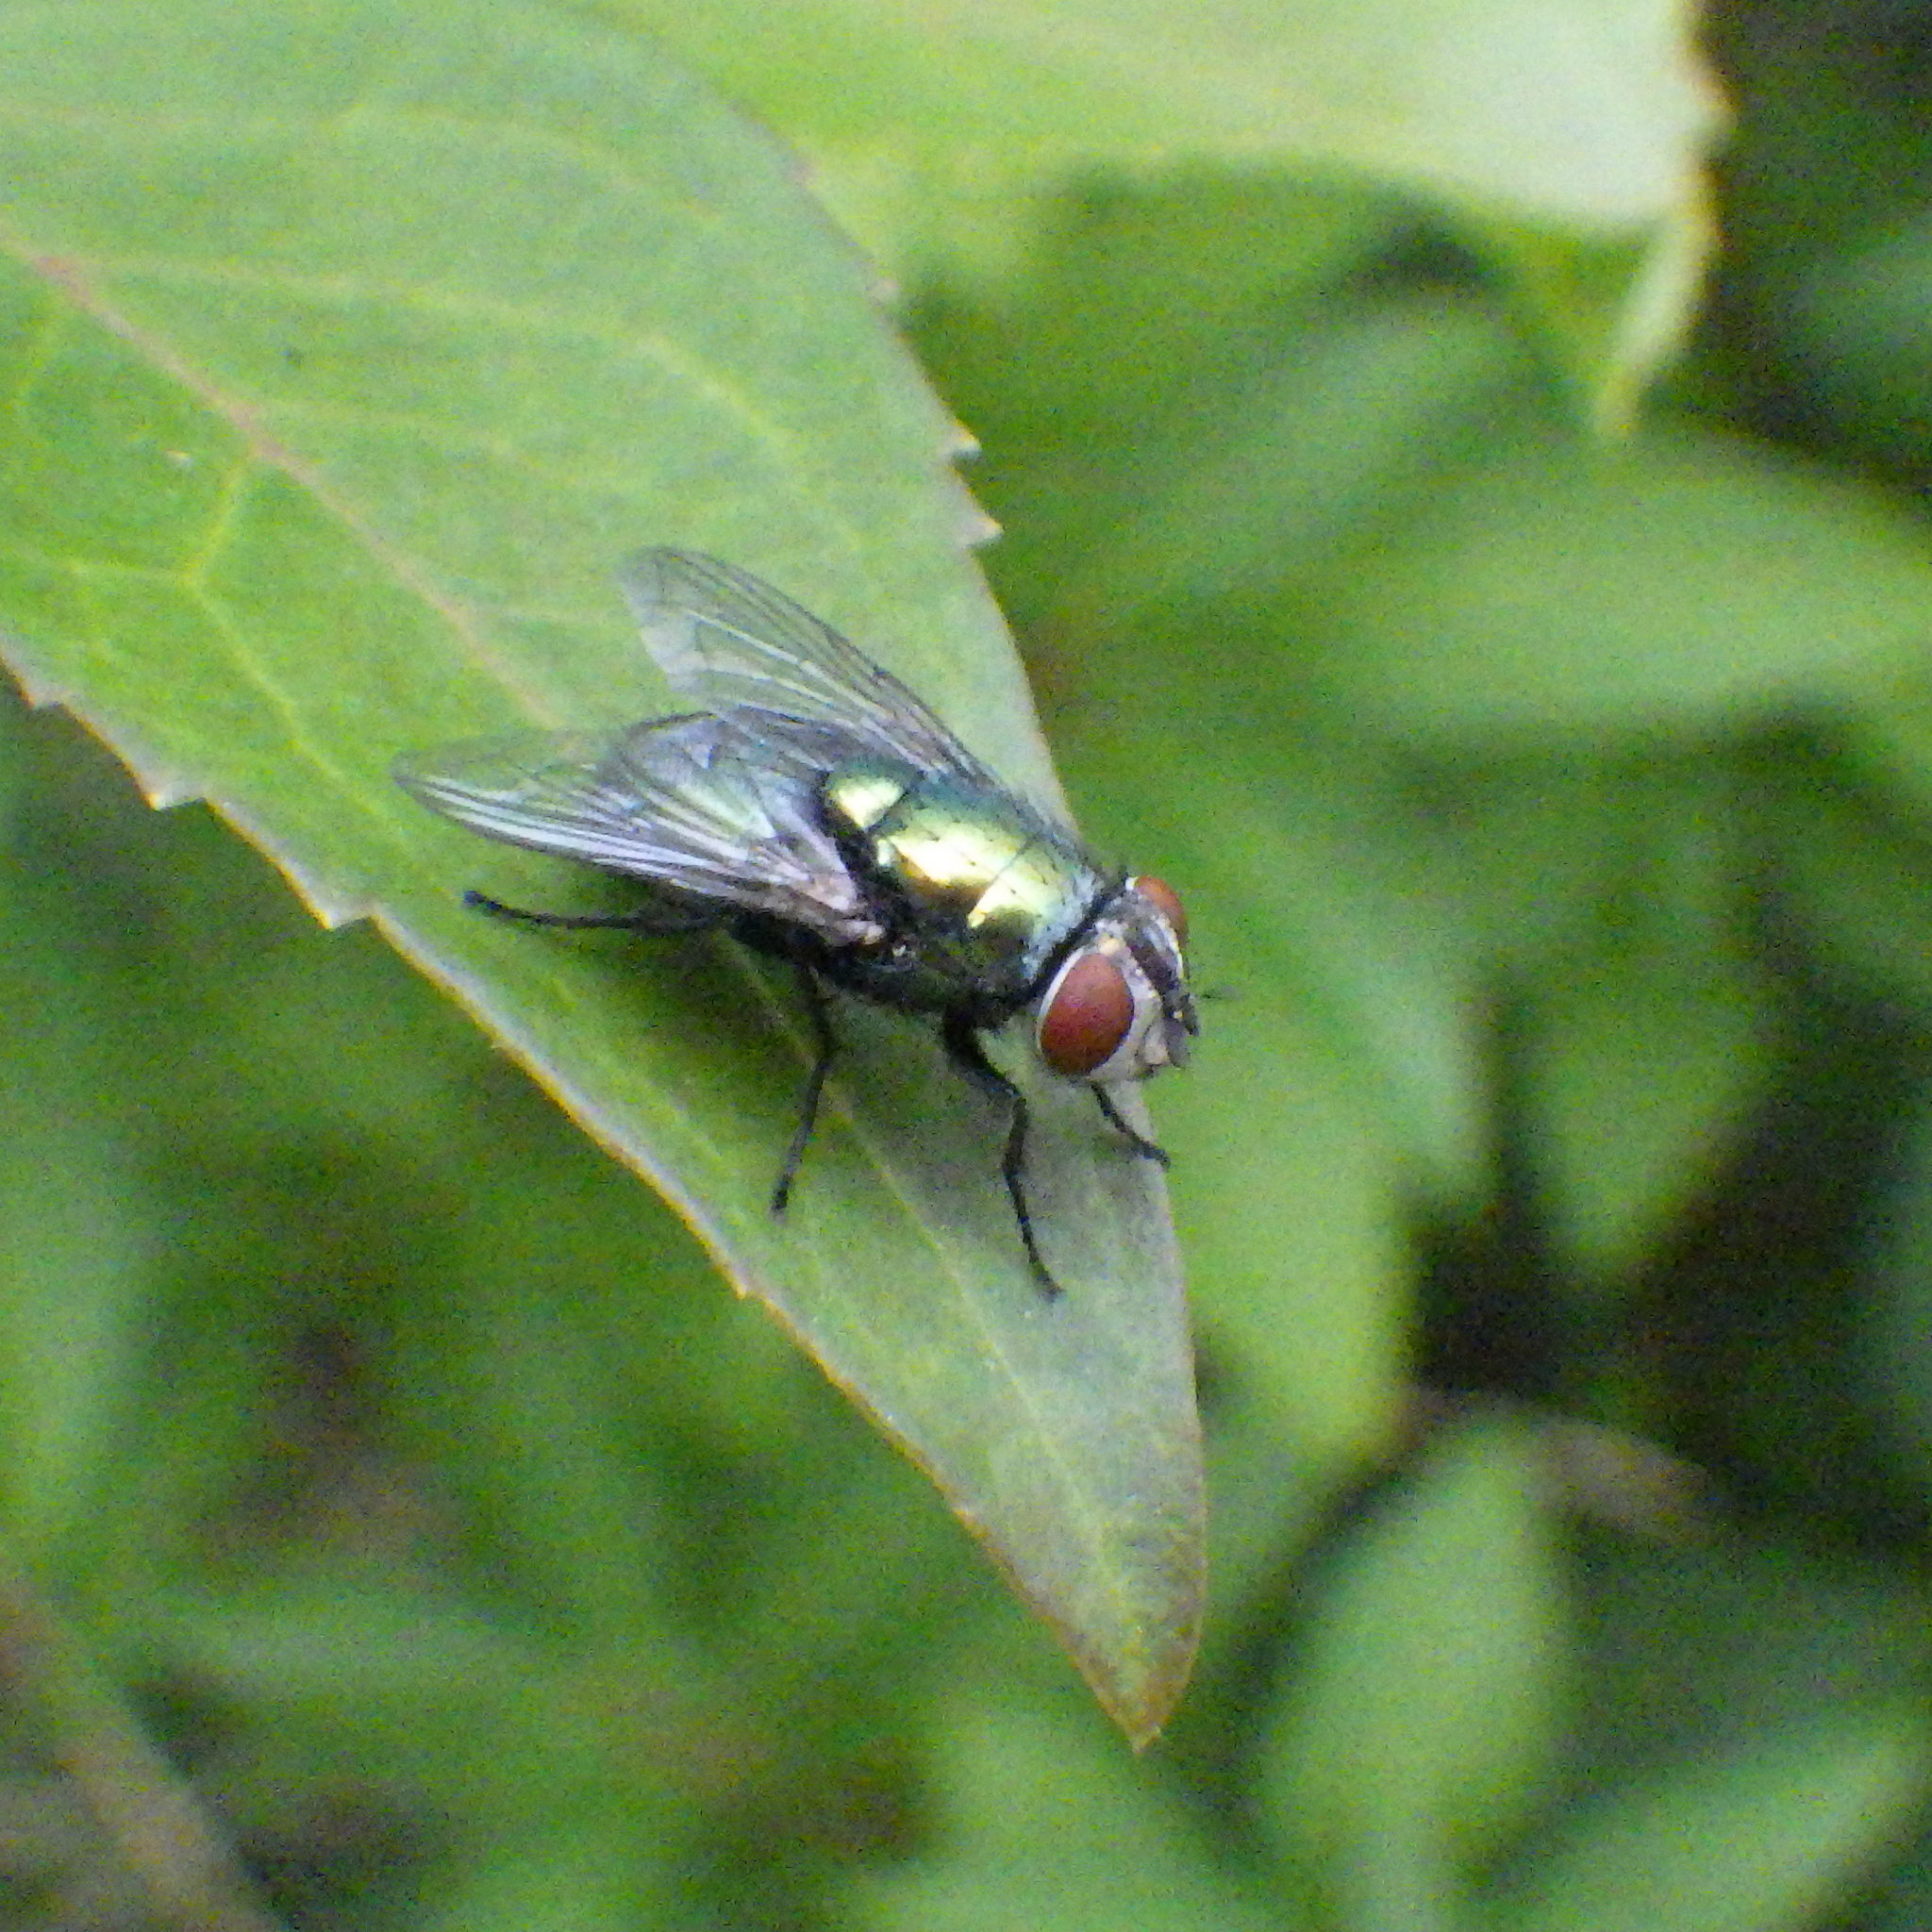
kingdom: Animalia
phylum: Arthropoda
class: Insecta
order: Diptera
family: Calliphoridae
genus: Lucilia
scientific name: Lucilia sericata
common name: Blow fly
